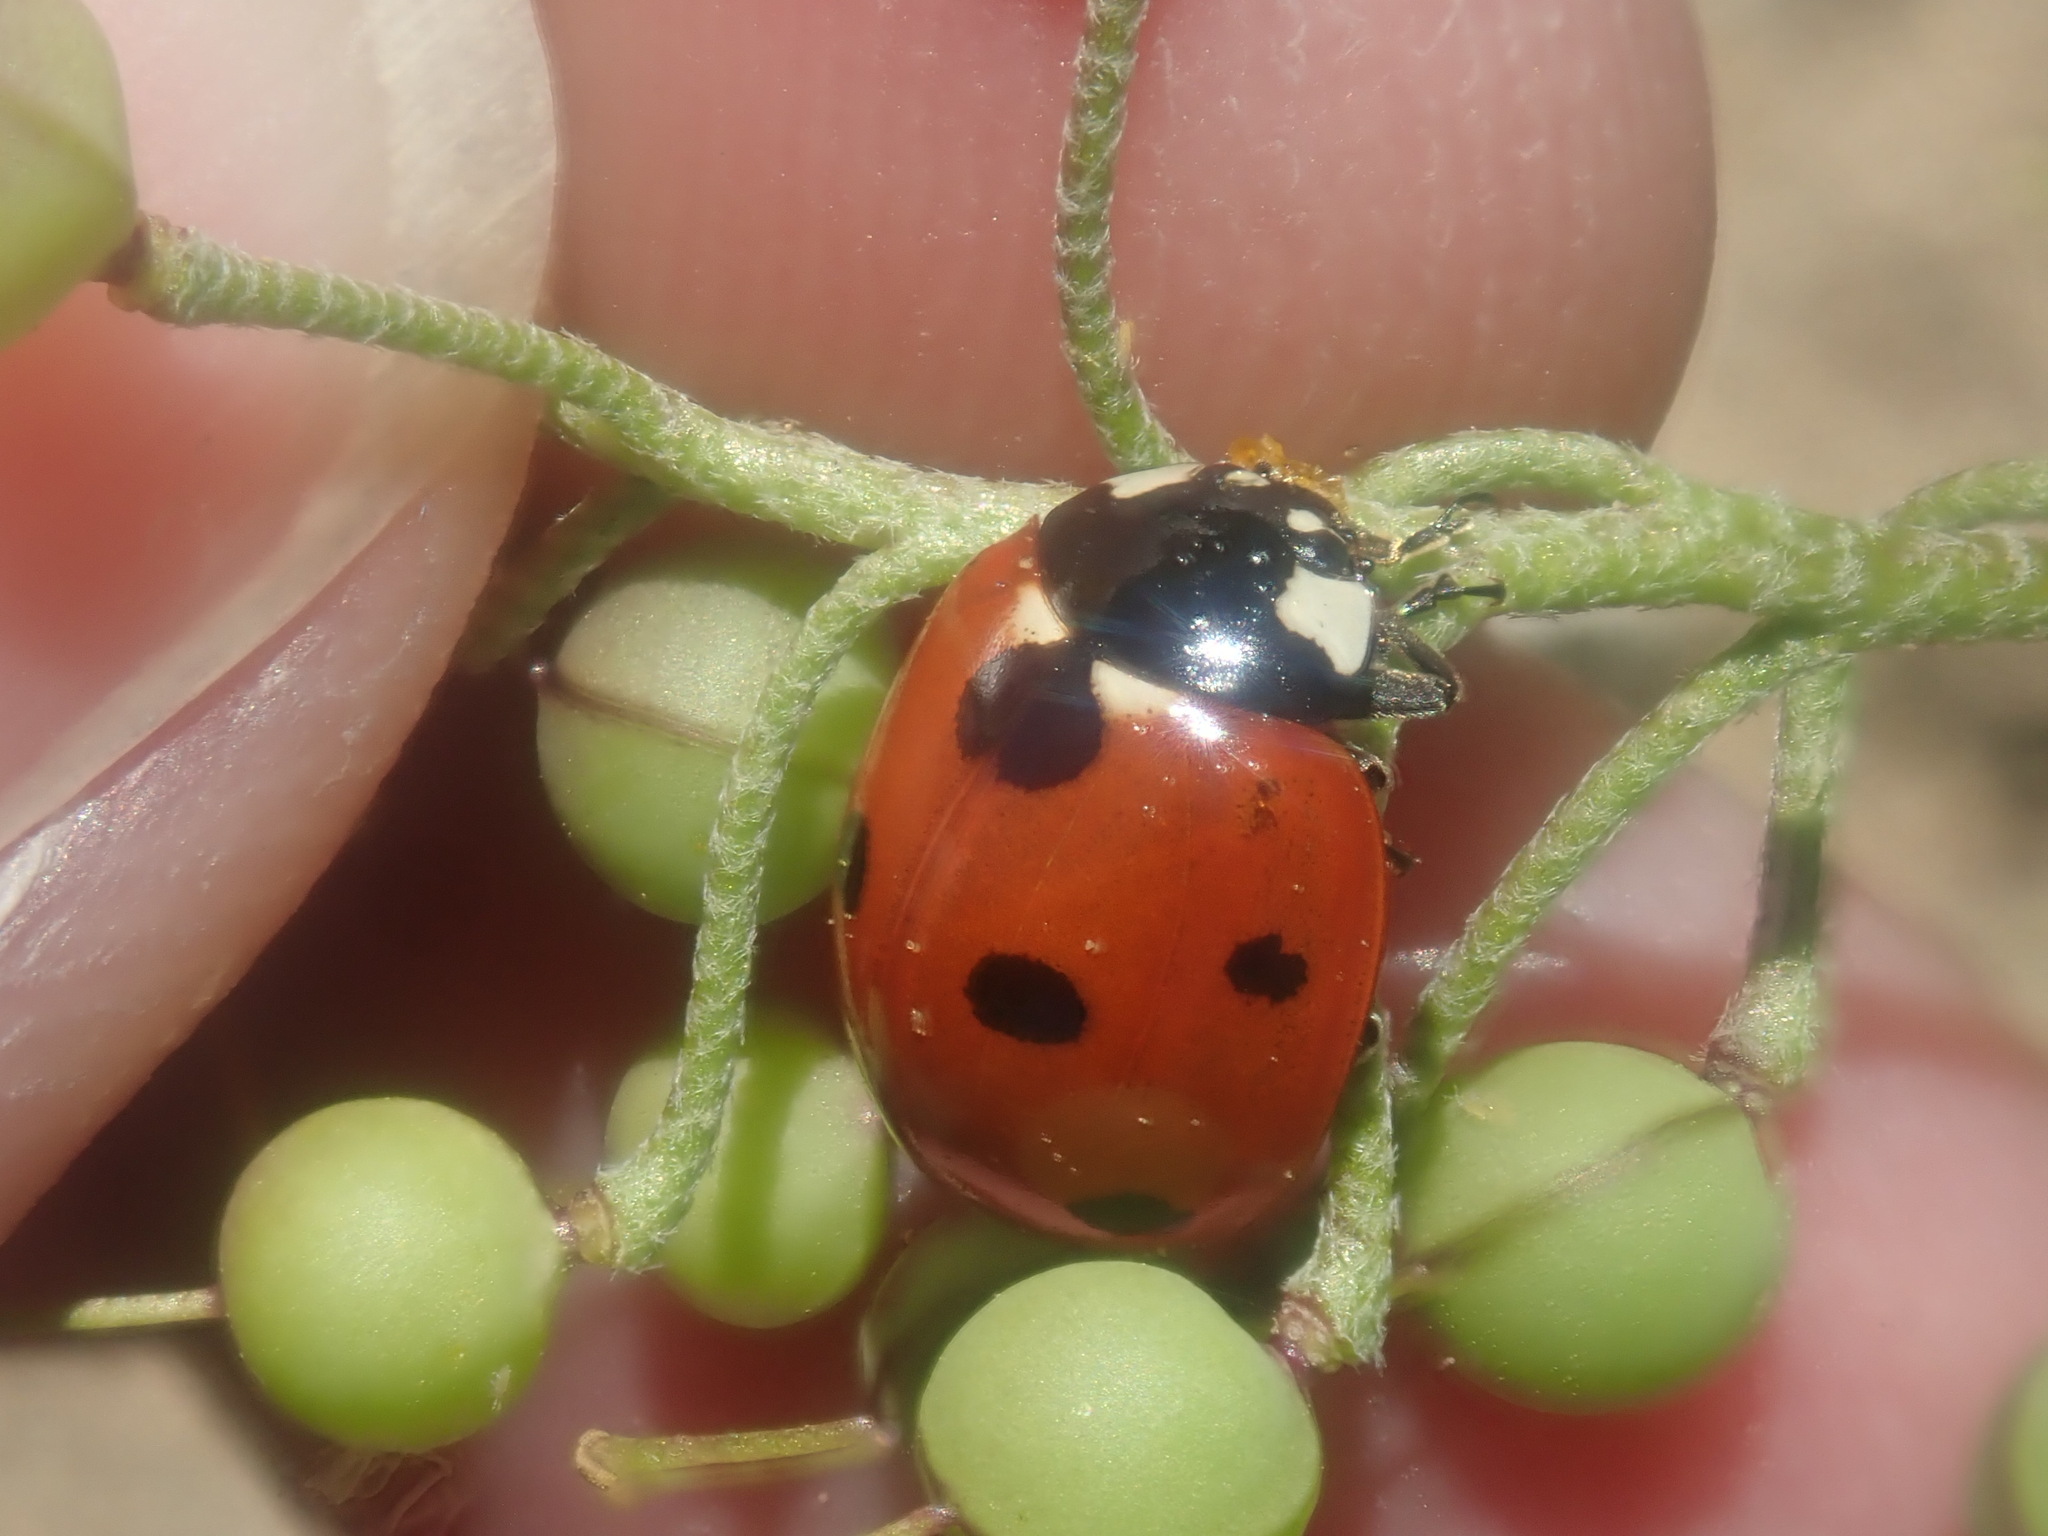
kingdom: Animalia
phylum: Arthropoda
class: Insecta
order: Coleoptera
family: Coccinellidae
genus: Coccinella
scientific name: Coccinella septempunctata
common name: Sevenspotted lady beetle
